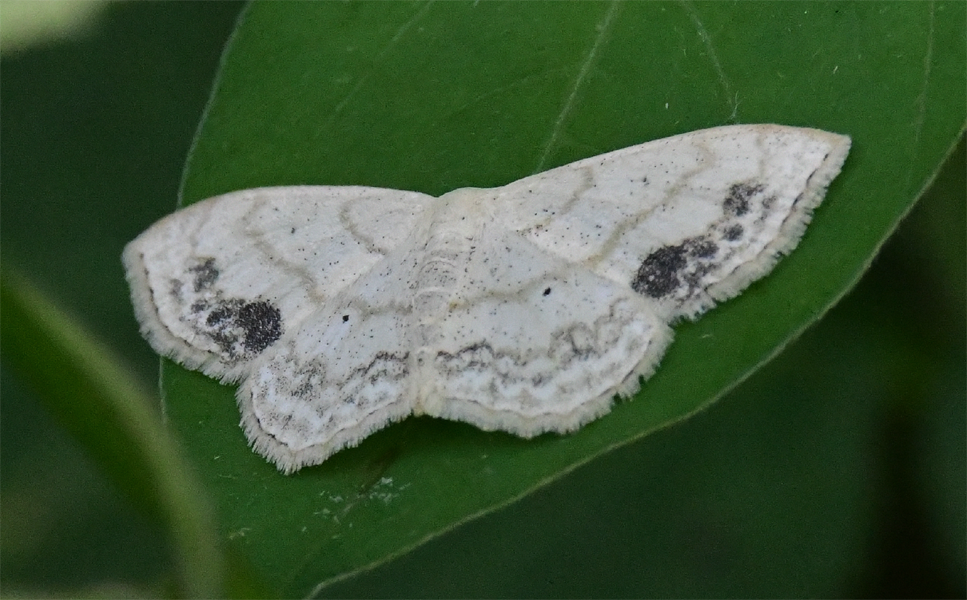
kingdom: Animalia
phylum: Arthropoda
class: Insecta
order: Lepidoptera
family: Geometridae
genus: Scopula
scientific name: Scopula limboundata
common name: Large lace border
